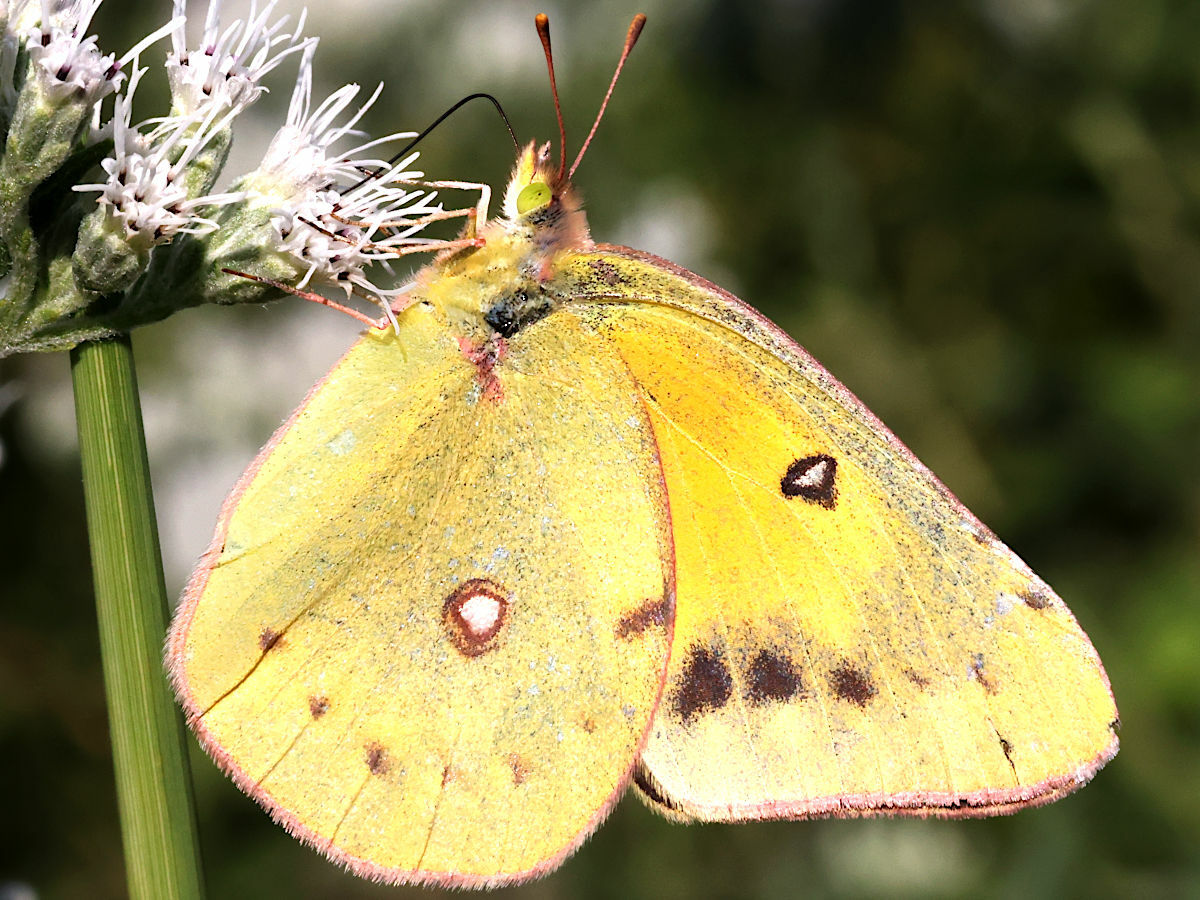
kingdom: Animalia
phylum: Arthropoda
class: Insecta
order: Lepidoptera
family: Pieridae
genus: Colias
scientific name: Colias eurytheme
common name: Alfalfa butterfly
